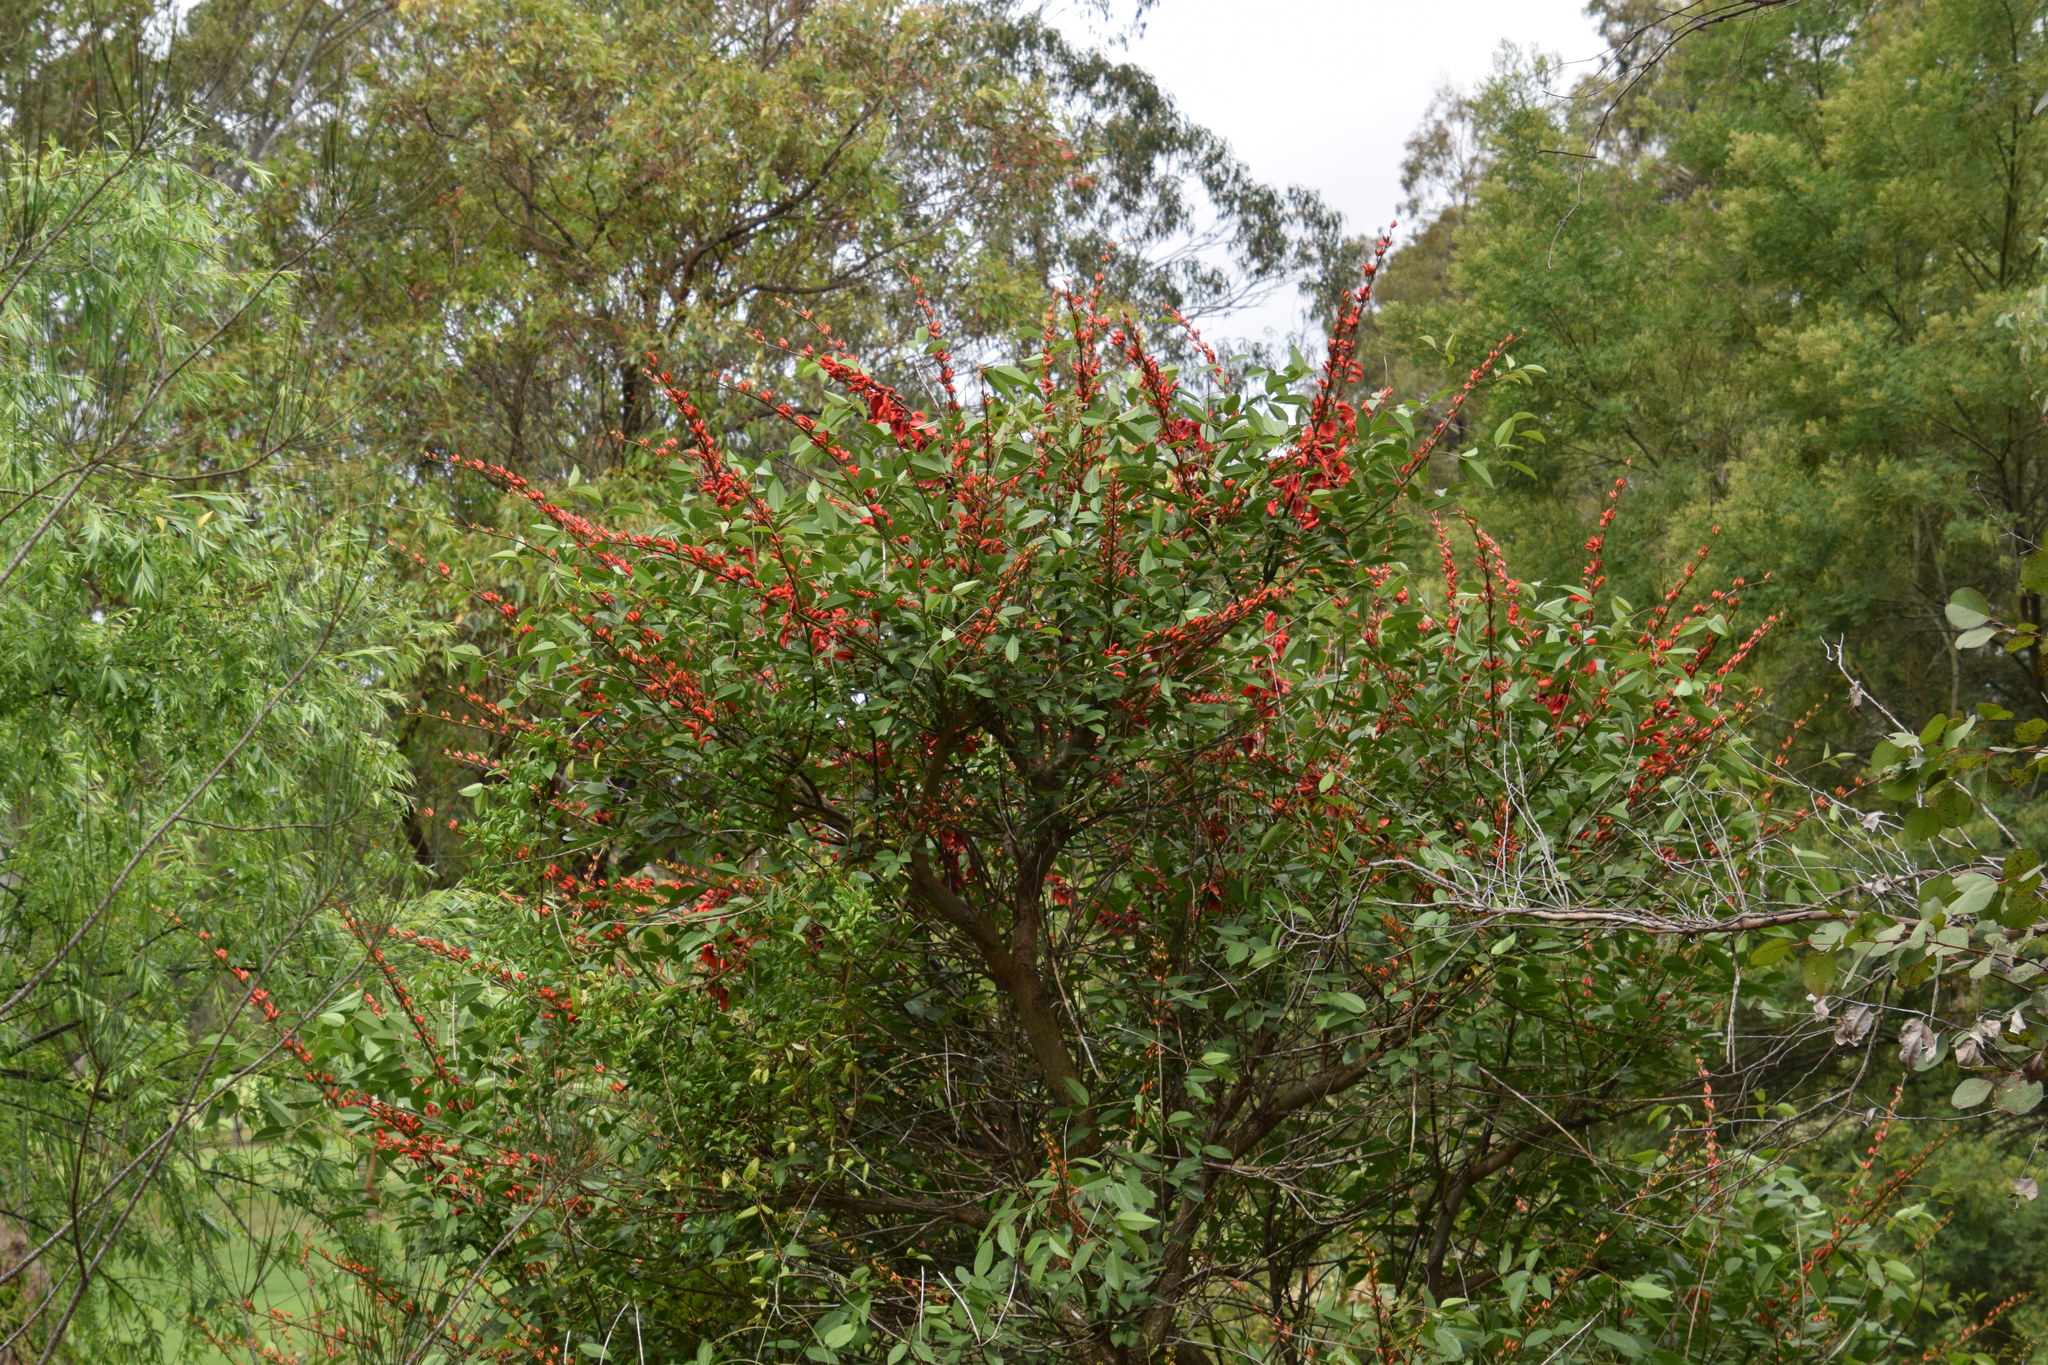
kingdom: Plantae
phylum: Tracheophyta
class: Magnoliopsida
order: Fabales
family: Fabaceae
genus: Erythrina
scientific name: Erythrina crista-galli
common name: Cockspur coral tree
